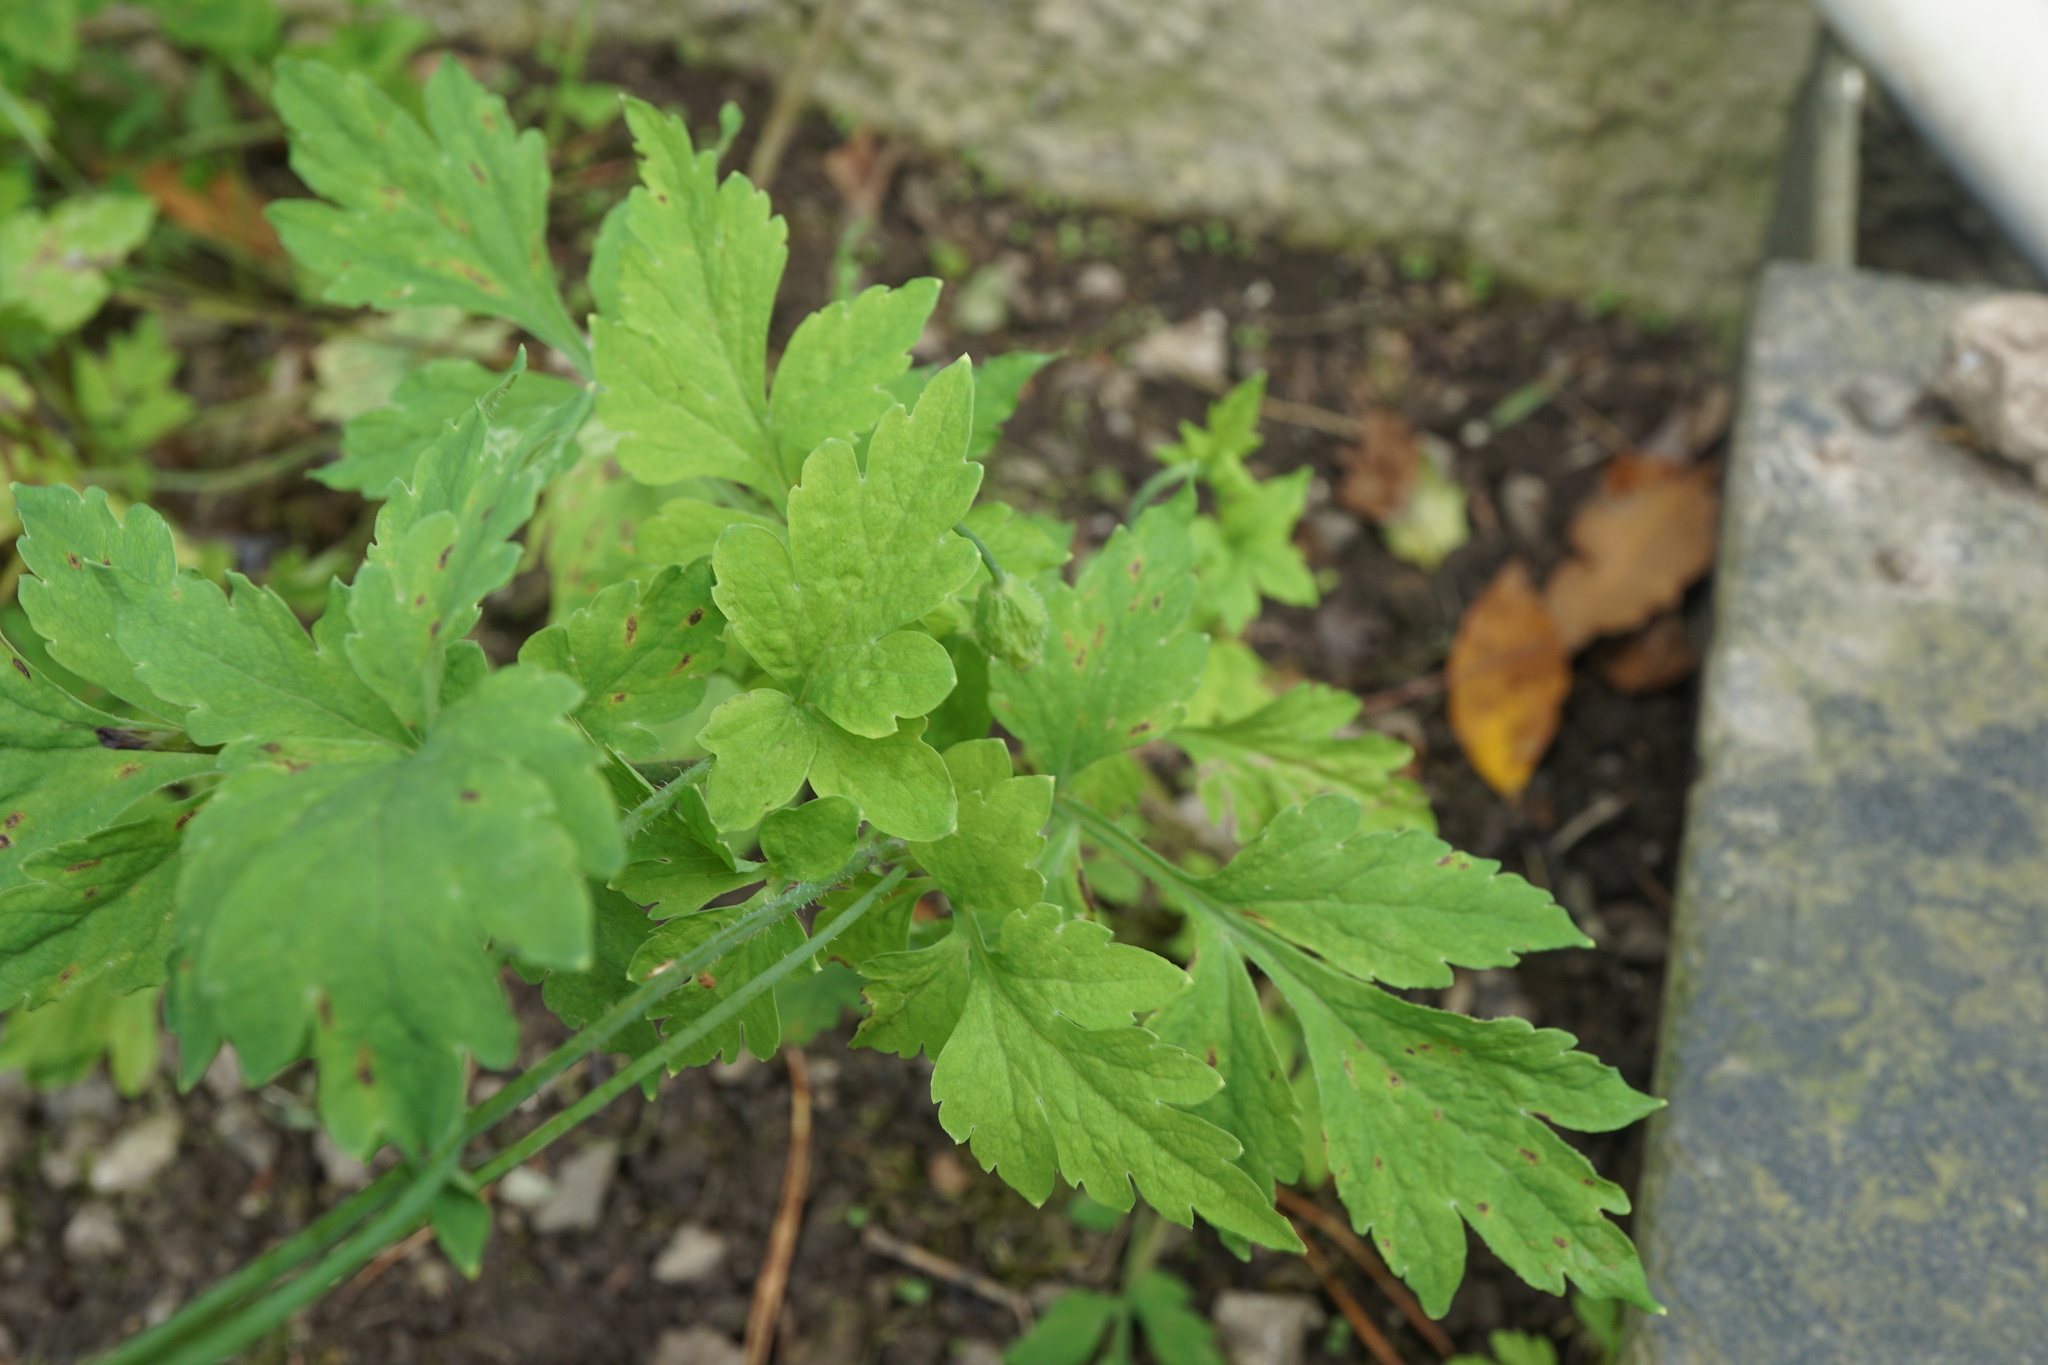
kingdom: Plantae
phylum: Tracheophyta
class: Magnoliopsida
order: Ranunculales
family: Papaveraceae
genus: Papaver
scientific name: Papaver cambricum
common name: Poppy
